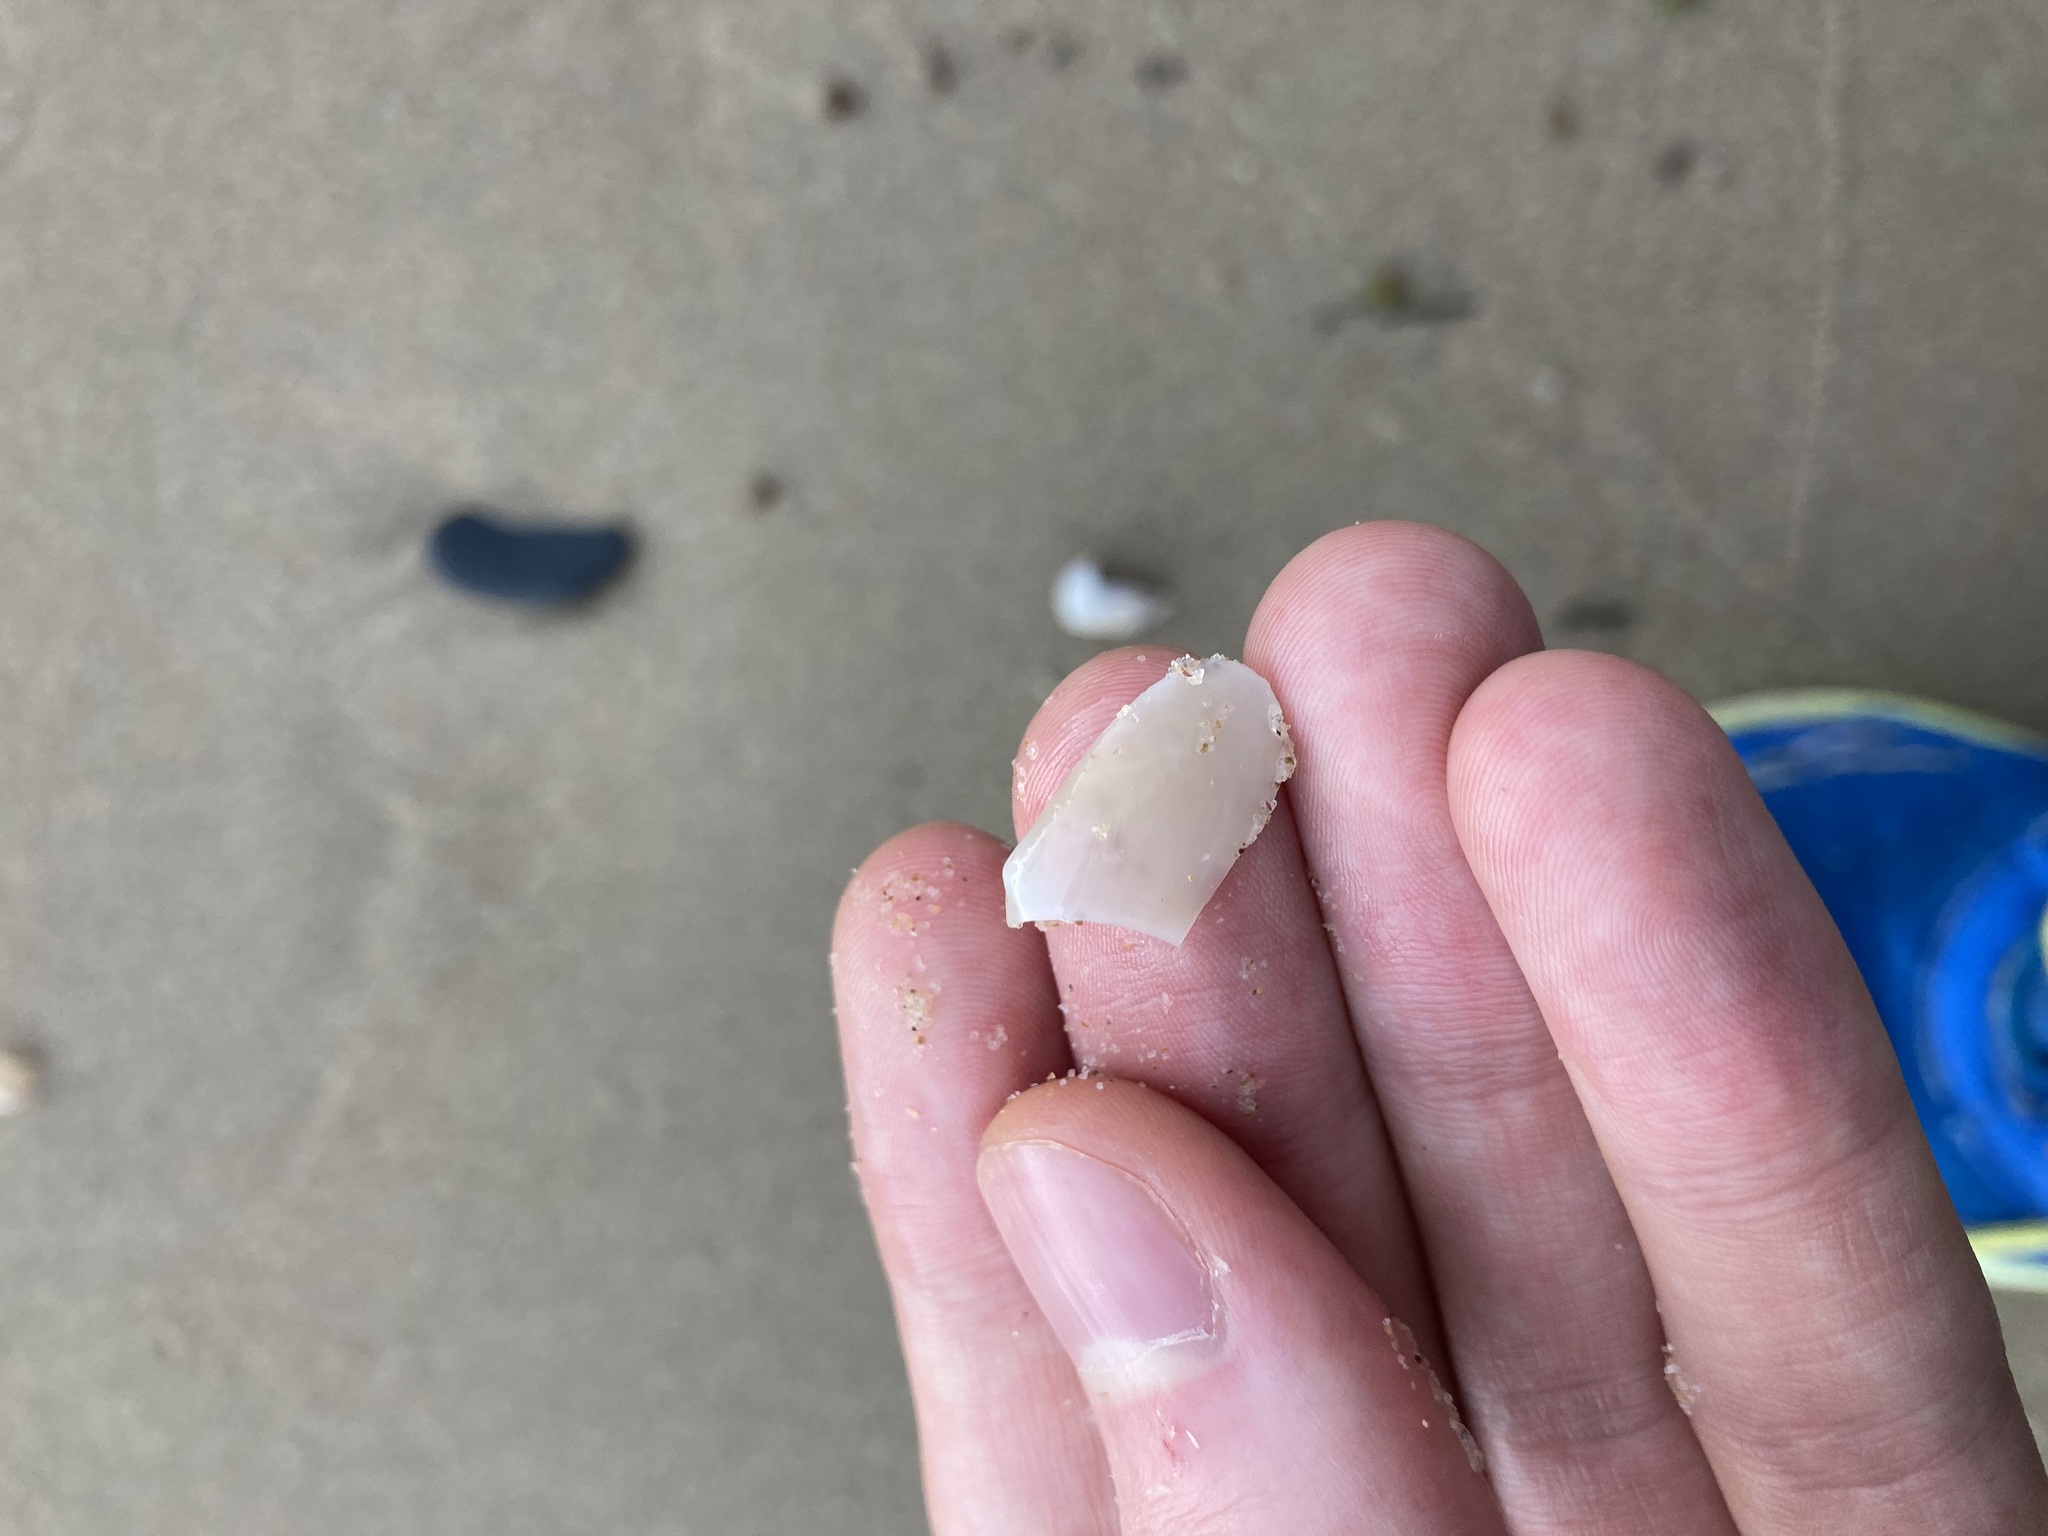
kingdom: Animalia
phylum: Mollusca
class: Bivalvia
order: Venerida
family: Mesodesmatidae
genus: Paphies
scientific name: Paphies angusta
